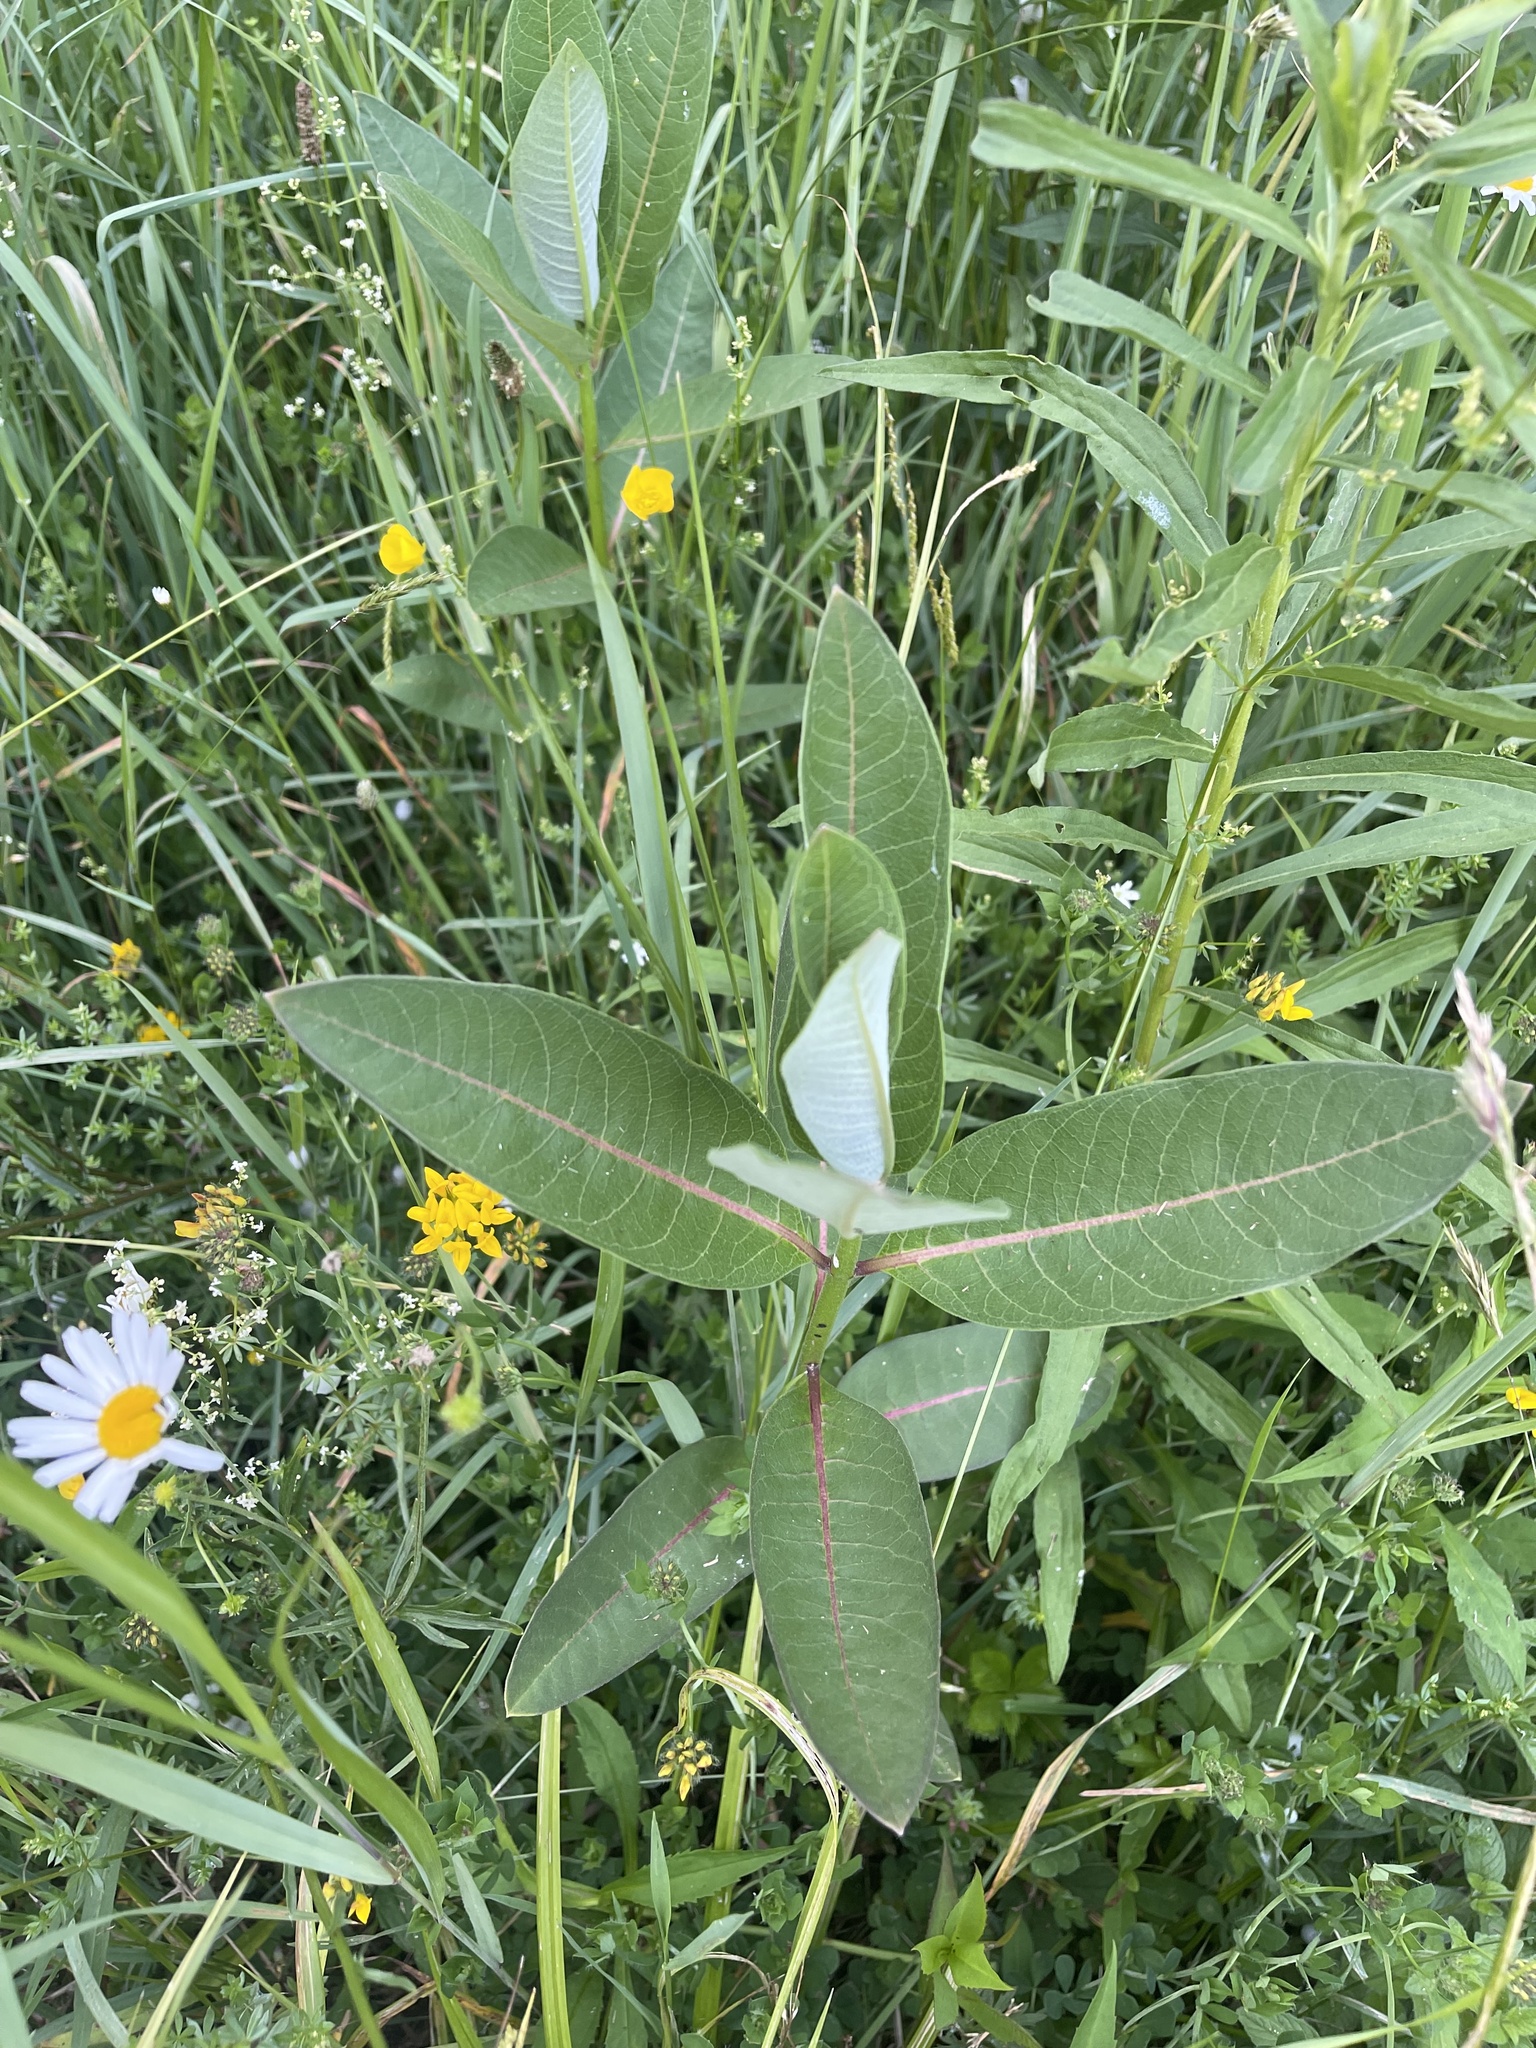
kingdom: Plantae
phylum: Tracheophyta
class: Magnoliopsida
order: Gentianales
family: Apocynaceae
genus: Asclepias
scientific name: Asclepias syriaca
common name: Common milkweed
